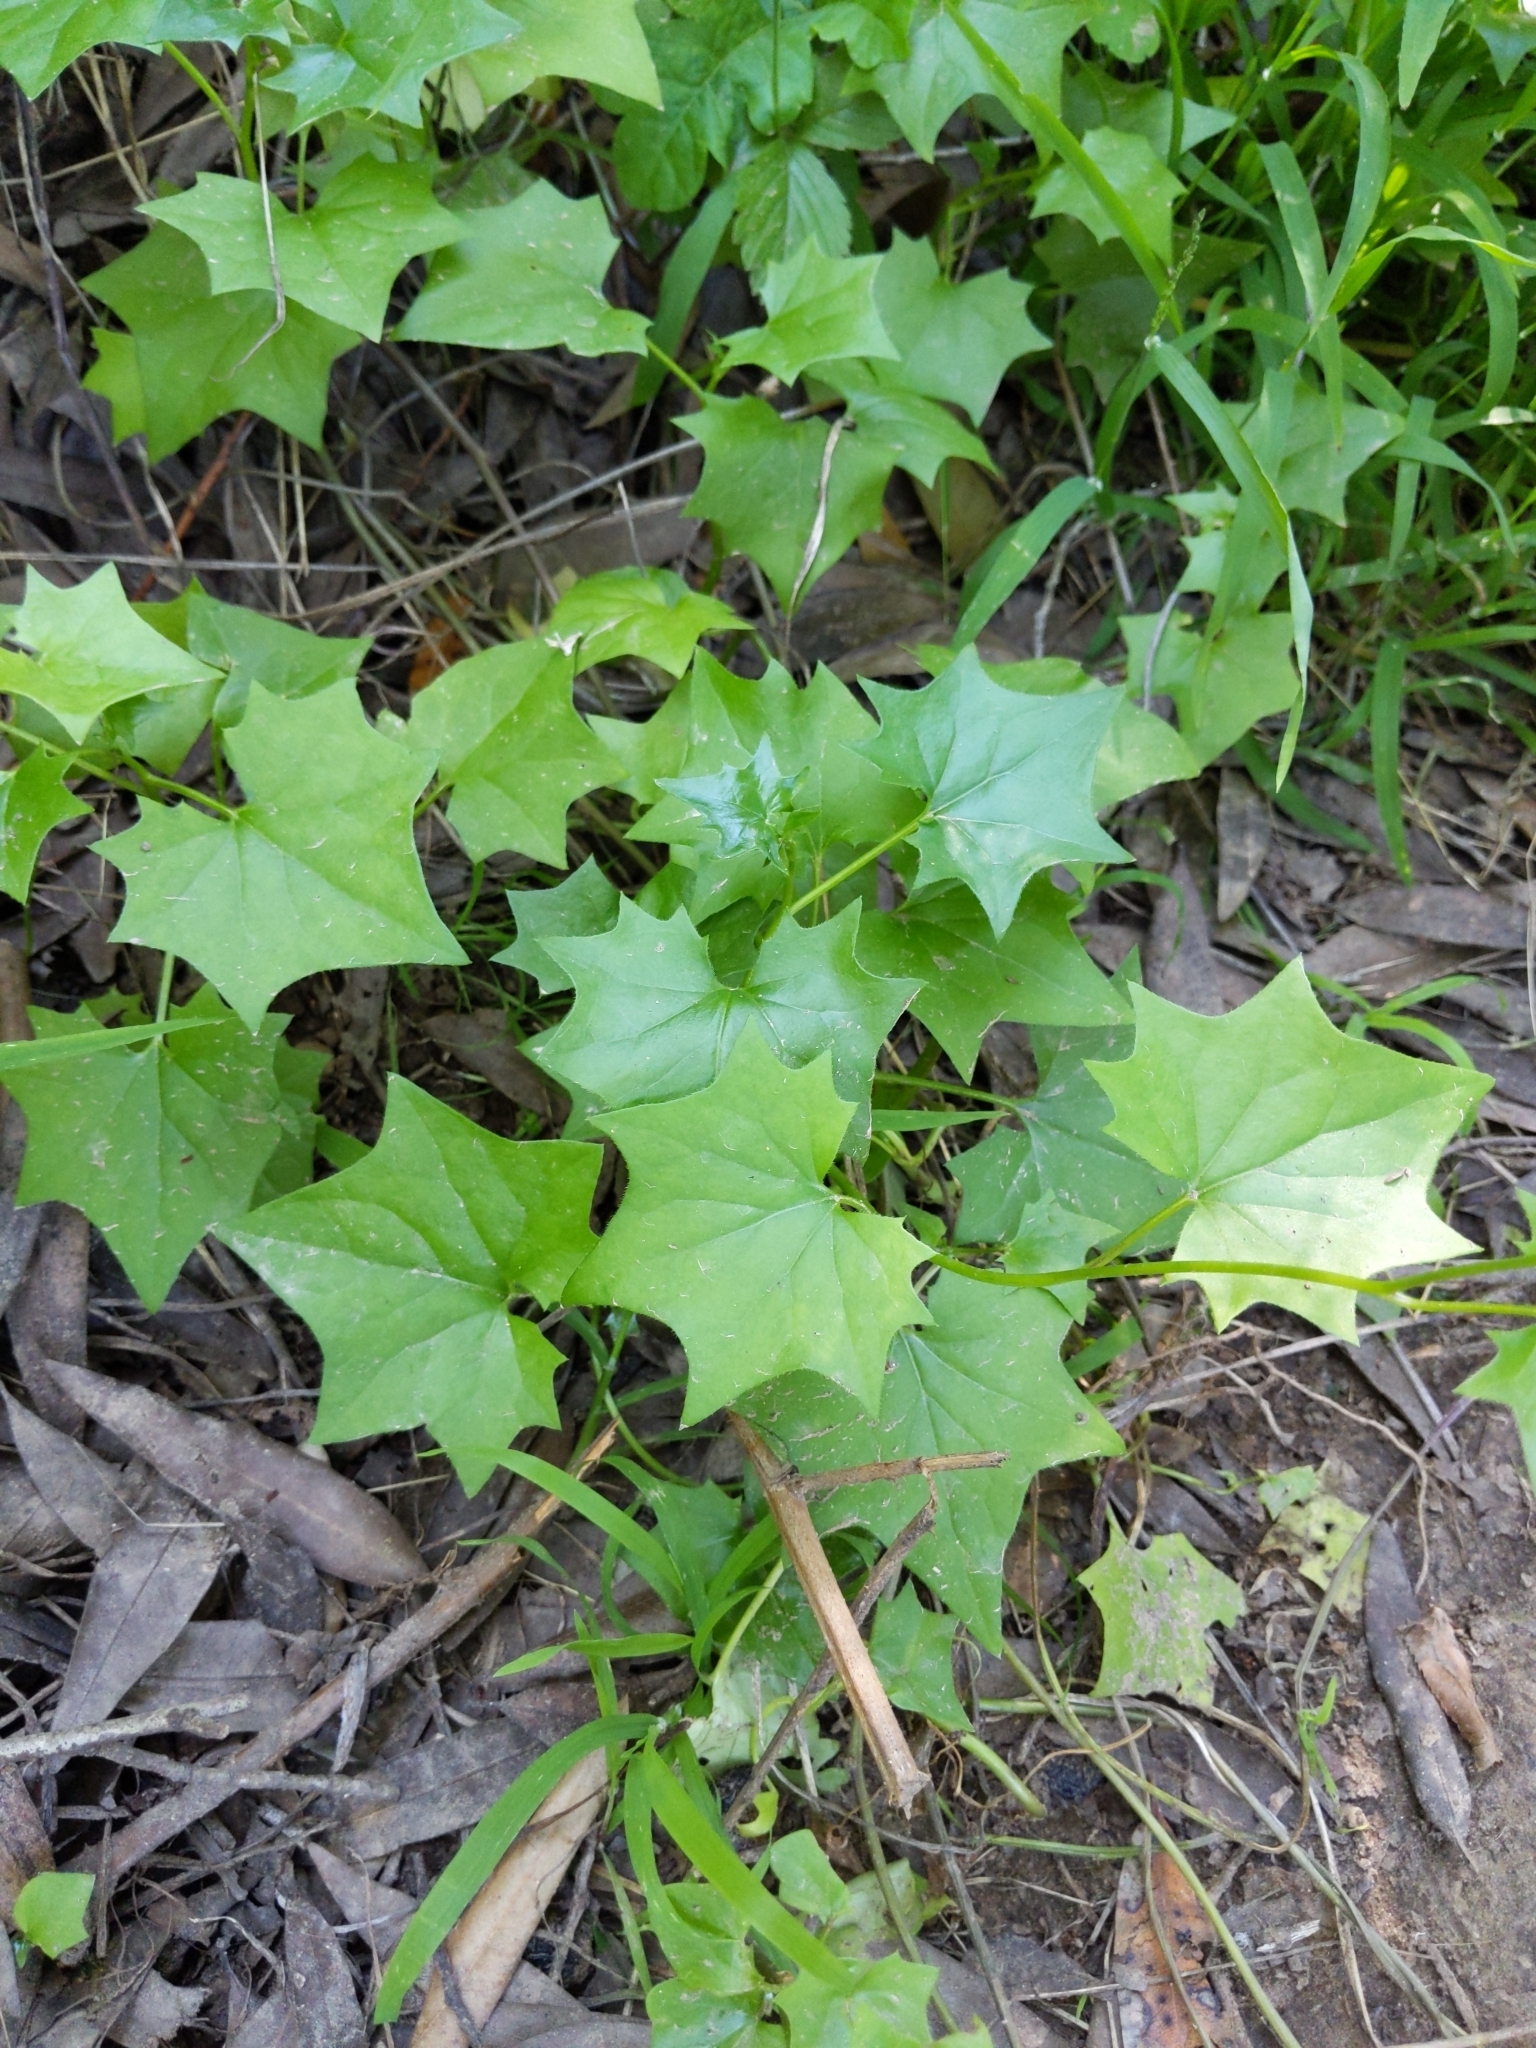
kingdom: Plantae
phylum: Tracheophyta
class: Magnoliopsida
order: Asterales
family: Asteraceae
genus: Delairea
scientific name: Delairea odorata
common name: Cape-ivy
